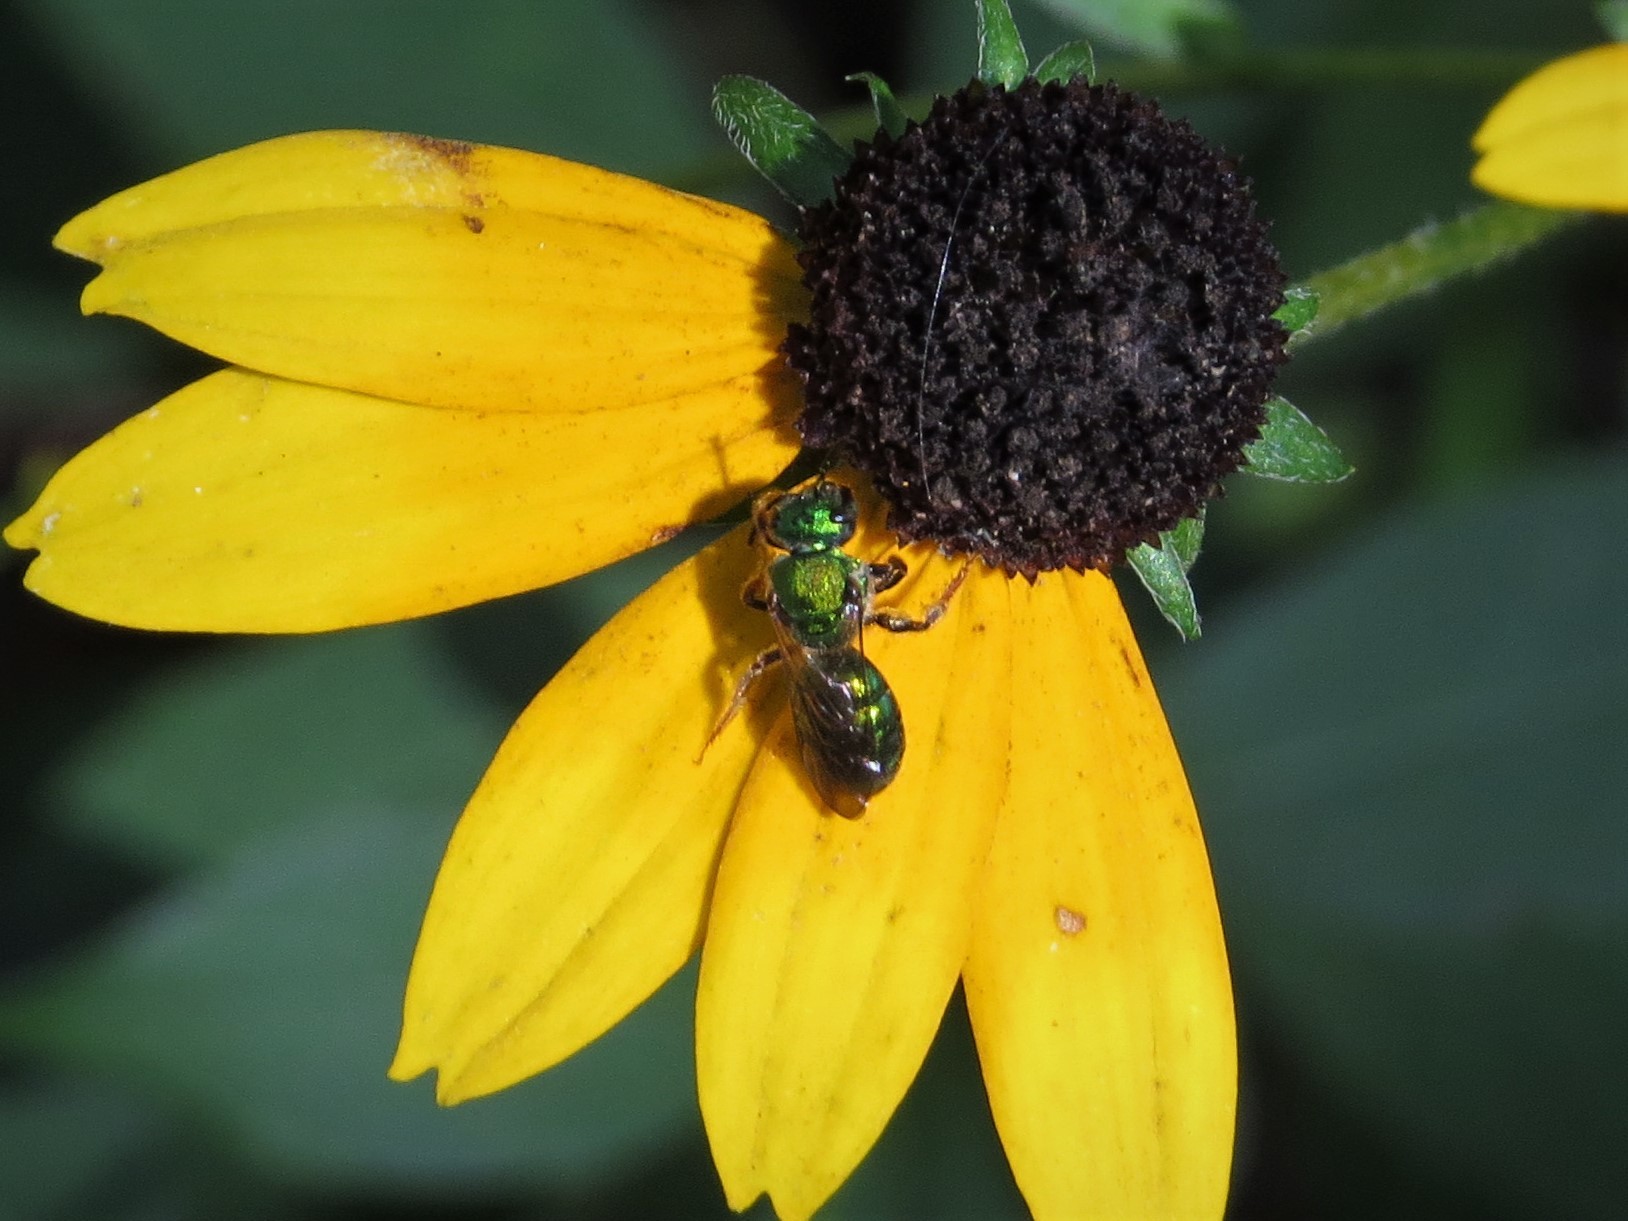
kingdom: Animalia
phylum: Arthropoda
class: Insecta
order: Hymenoptera
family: Halictidae
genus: Augochlora
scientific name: Augochlora pura
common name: Pure green sweat bee
